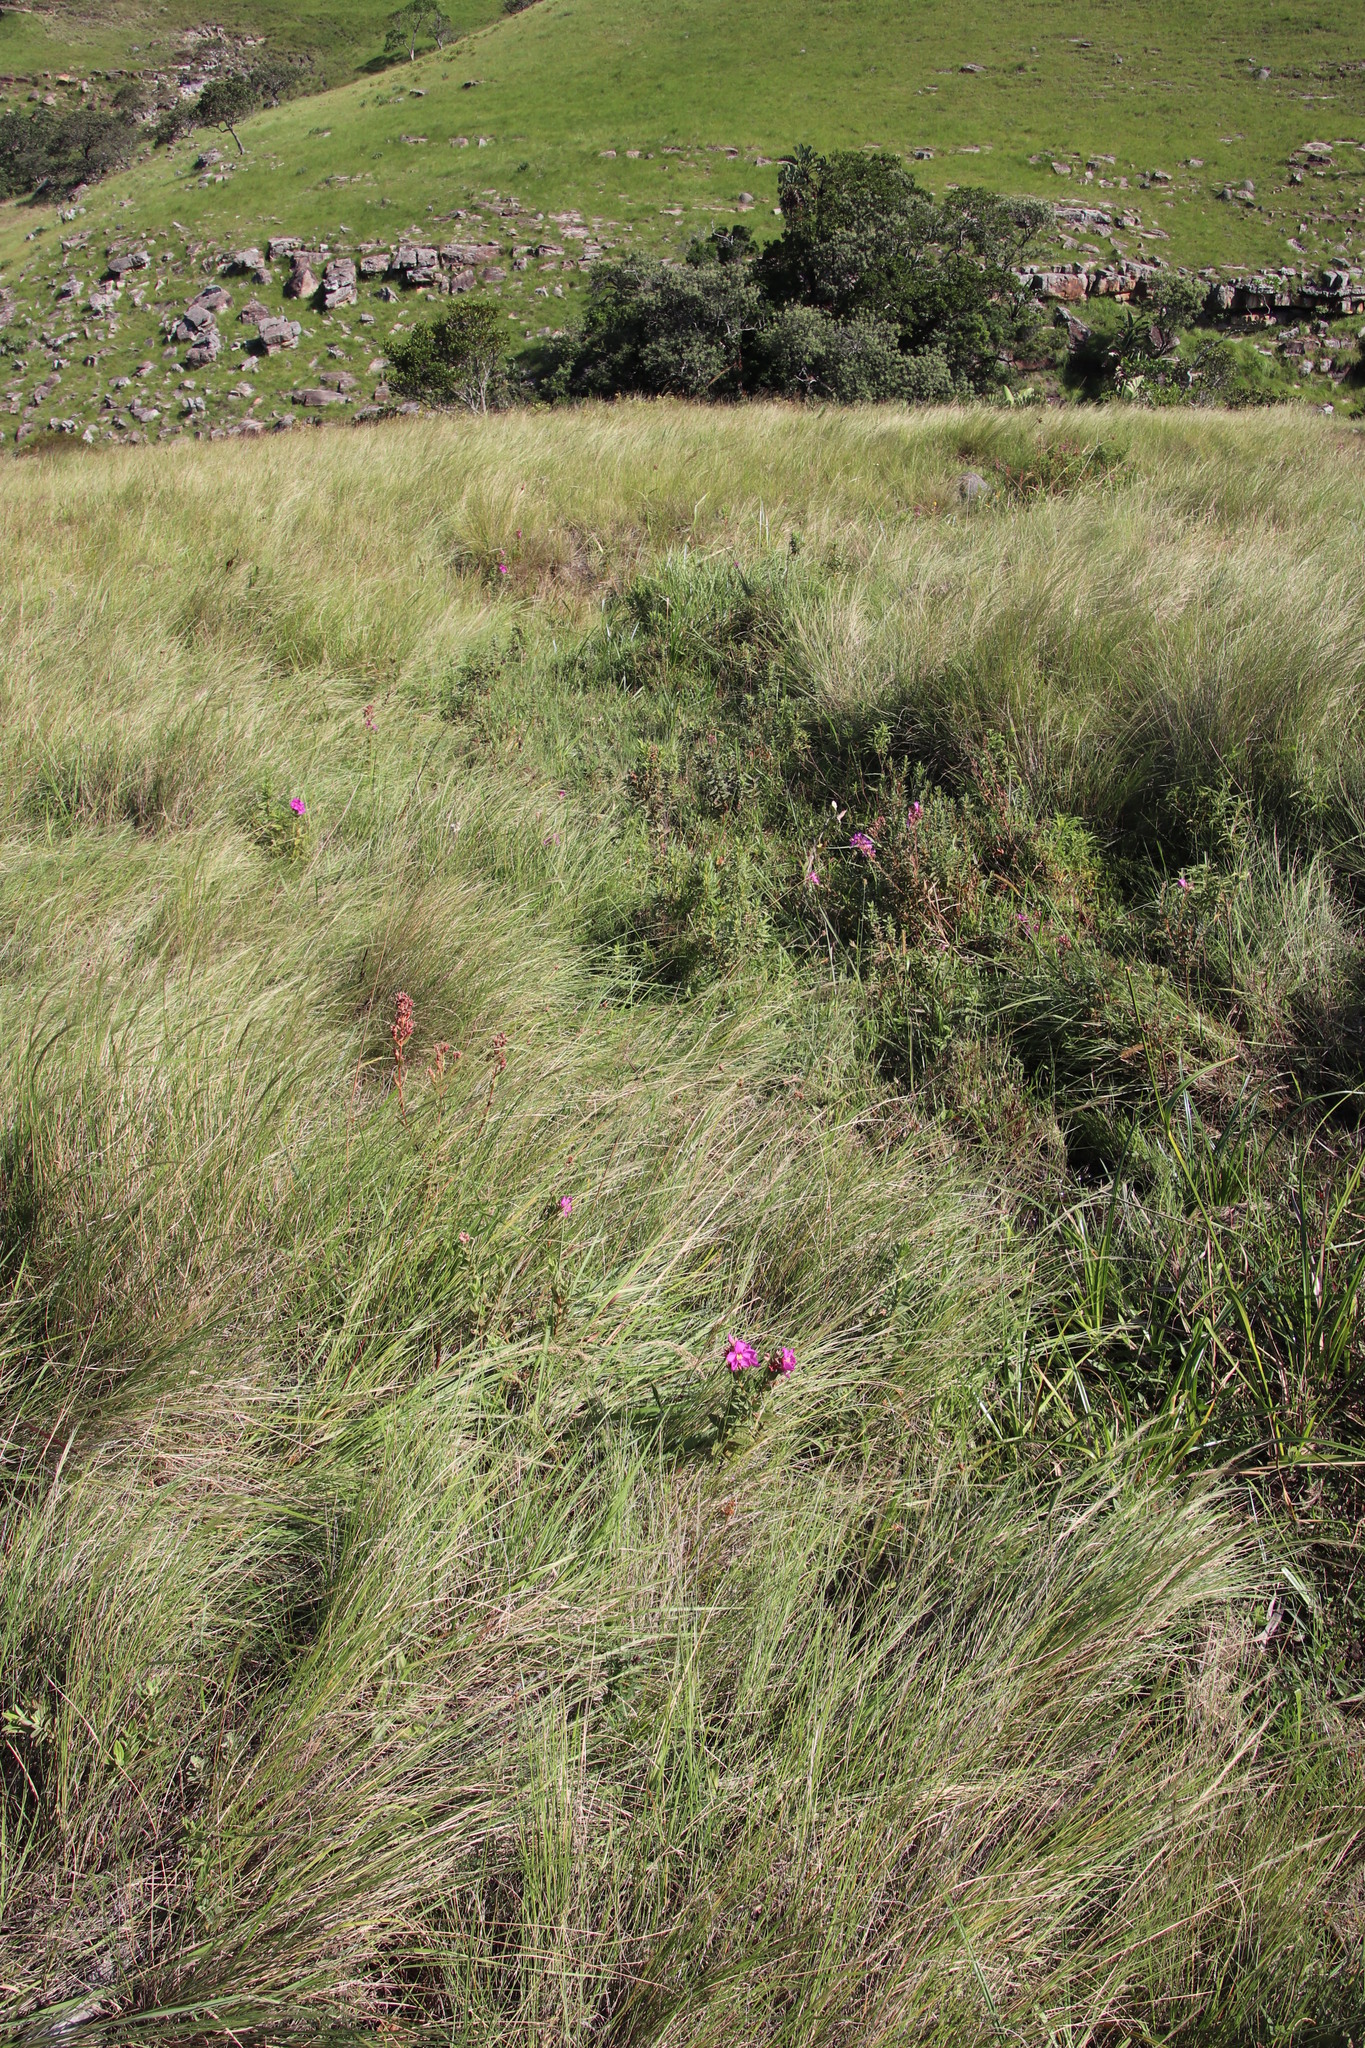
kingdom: Plantae
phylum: Tracheophyta
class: Magnoliopsida
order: Myrtales
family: Melastomataceae
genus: Argyrella
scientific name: Argyrella canescens
